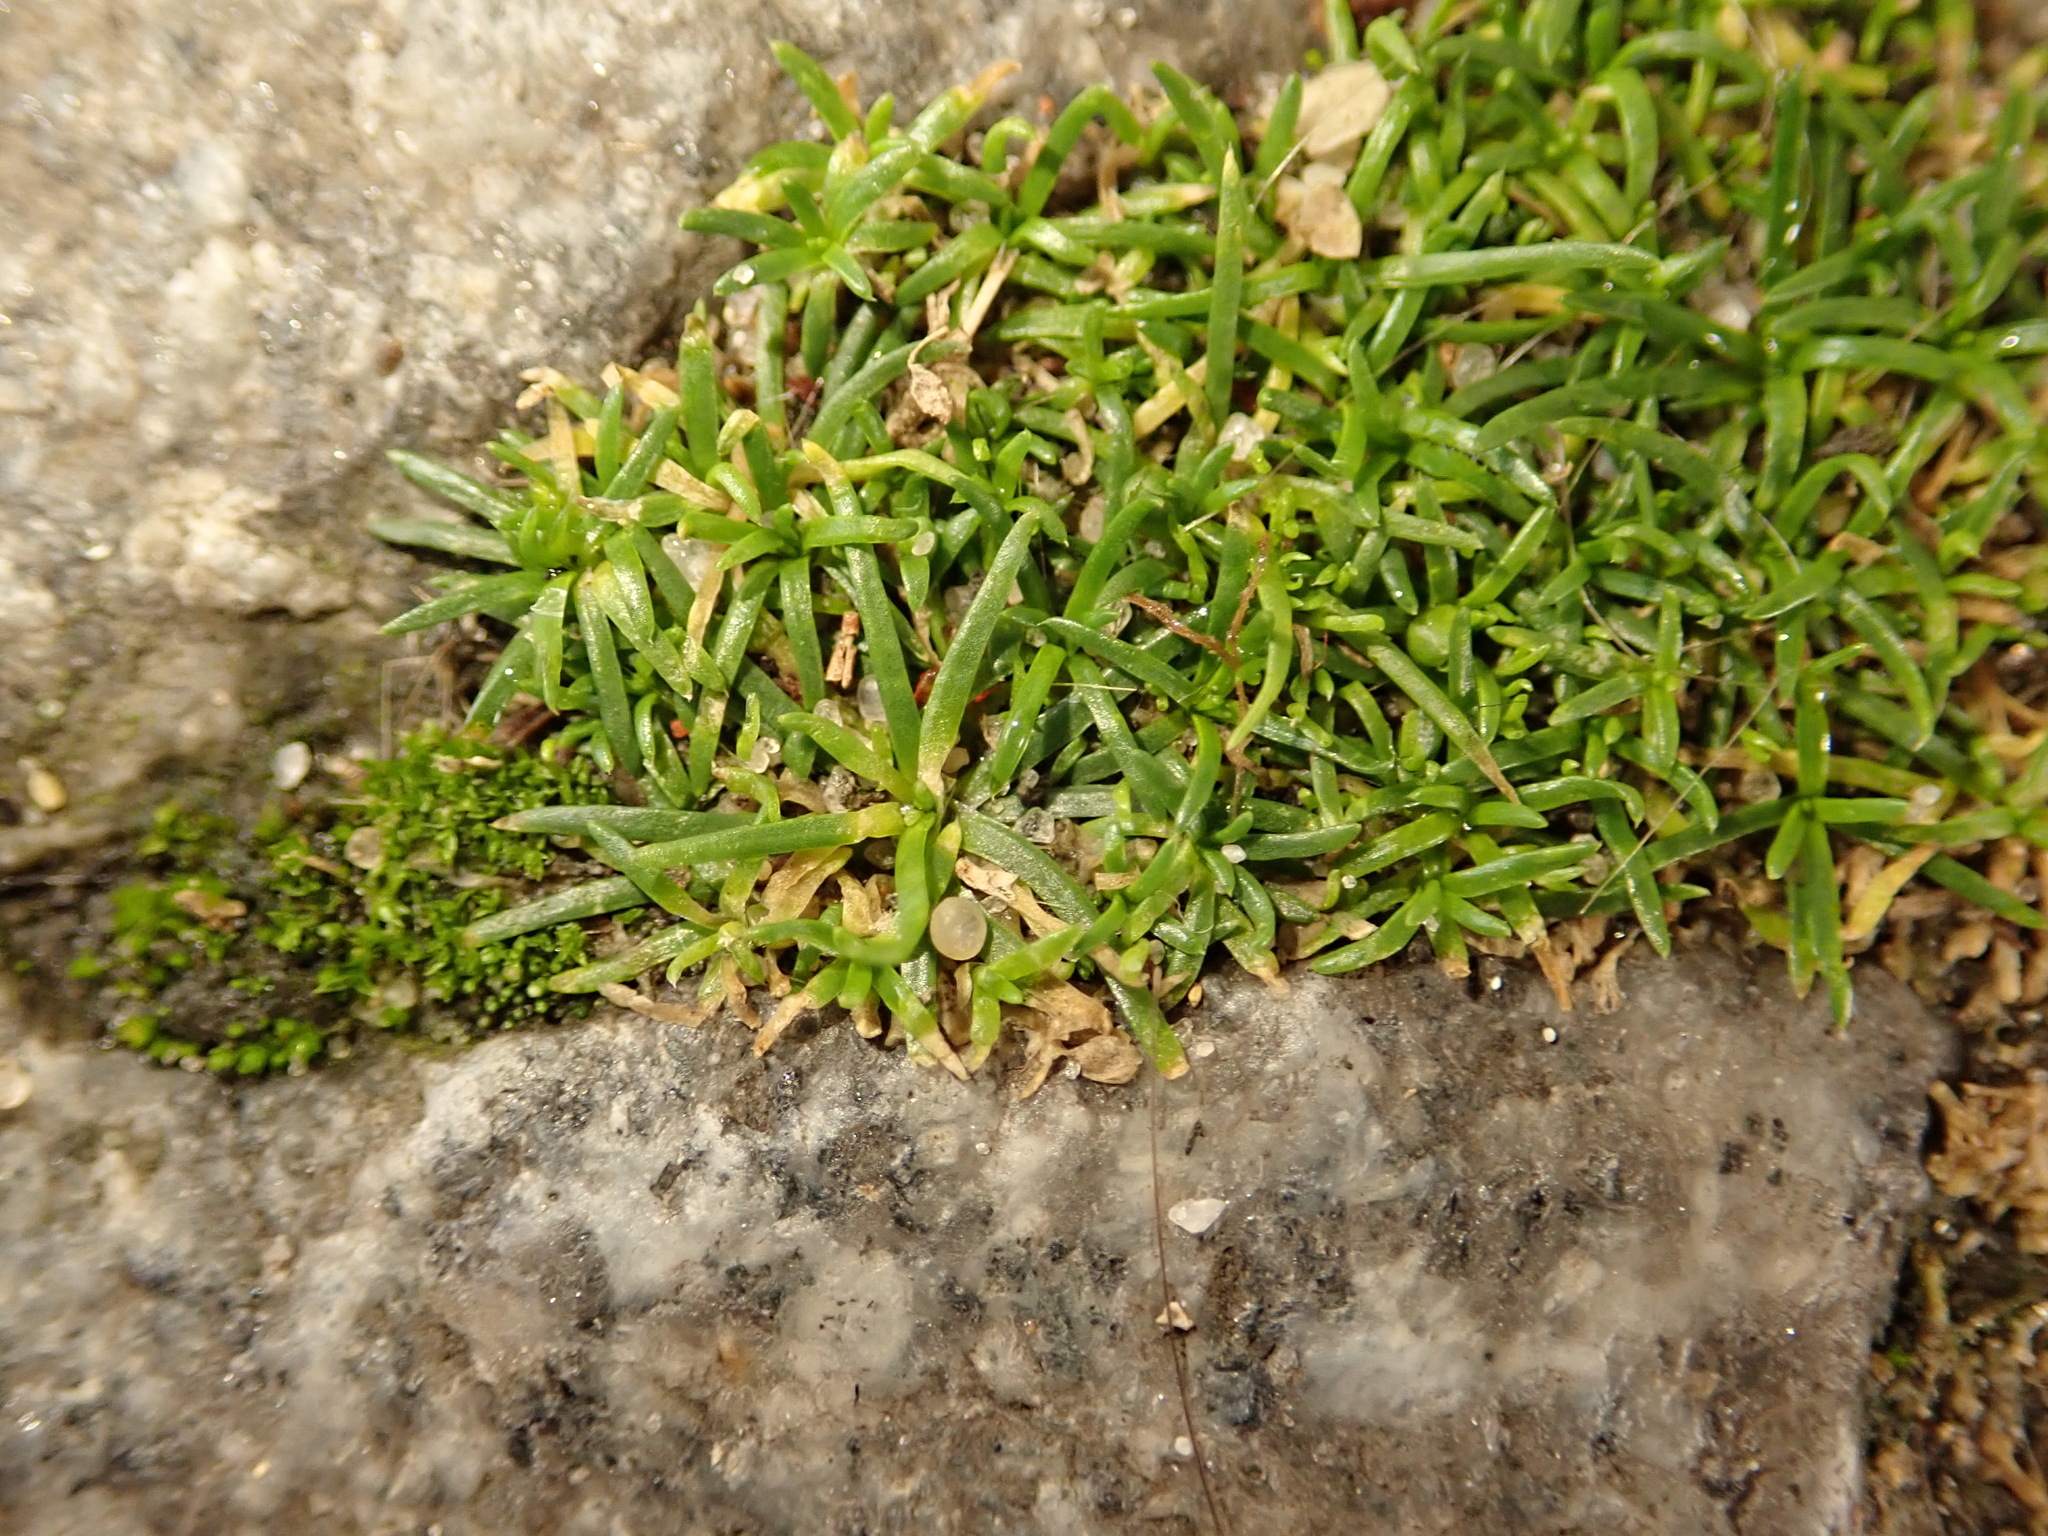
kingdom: Plantae
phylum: Tracheophyta
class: Magnoliopsida
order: Caryophyllales
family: Caryophyllaceae
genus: Sagina
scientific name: Sagina procumbens
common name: Procumbent pearlwort
